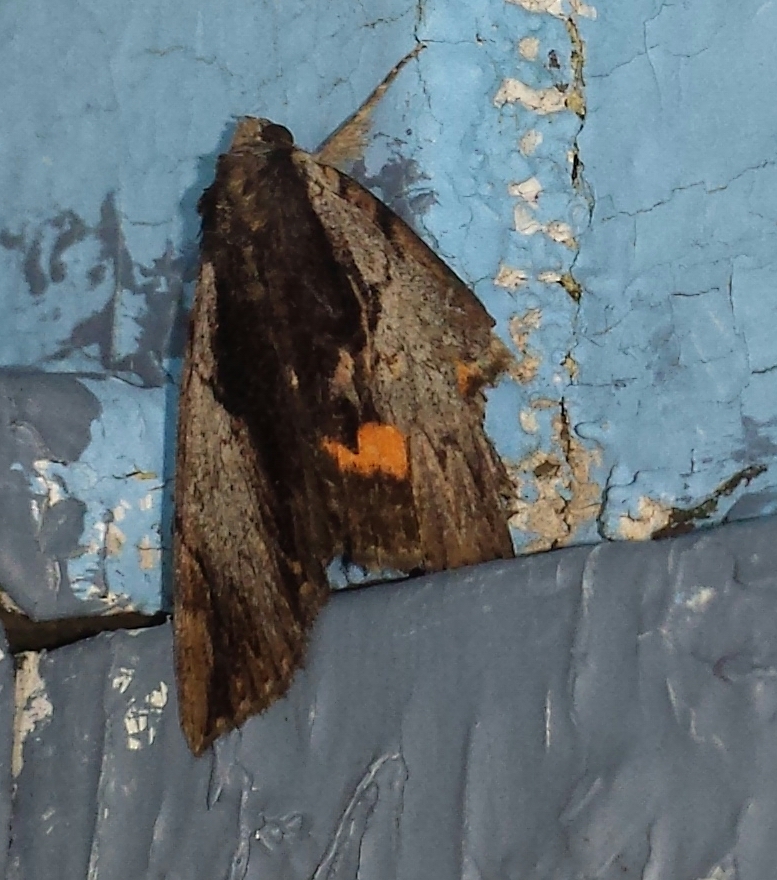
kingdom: Animalia
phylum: Arthropoda
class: Insecta
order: Lepidoptera
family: Erebidae
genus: Catocala
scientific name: Catocala ultronia
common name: Ultronia underwing
